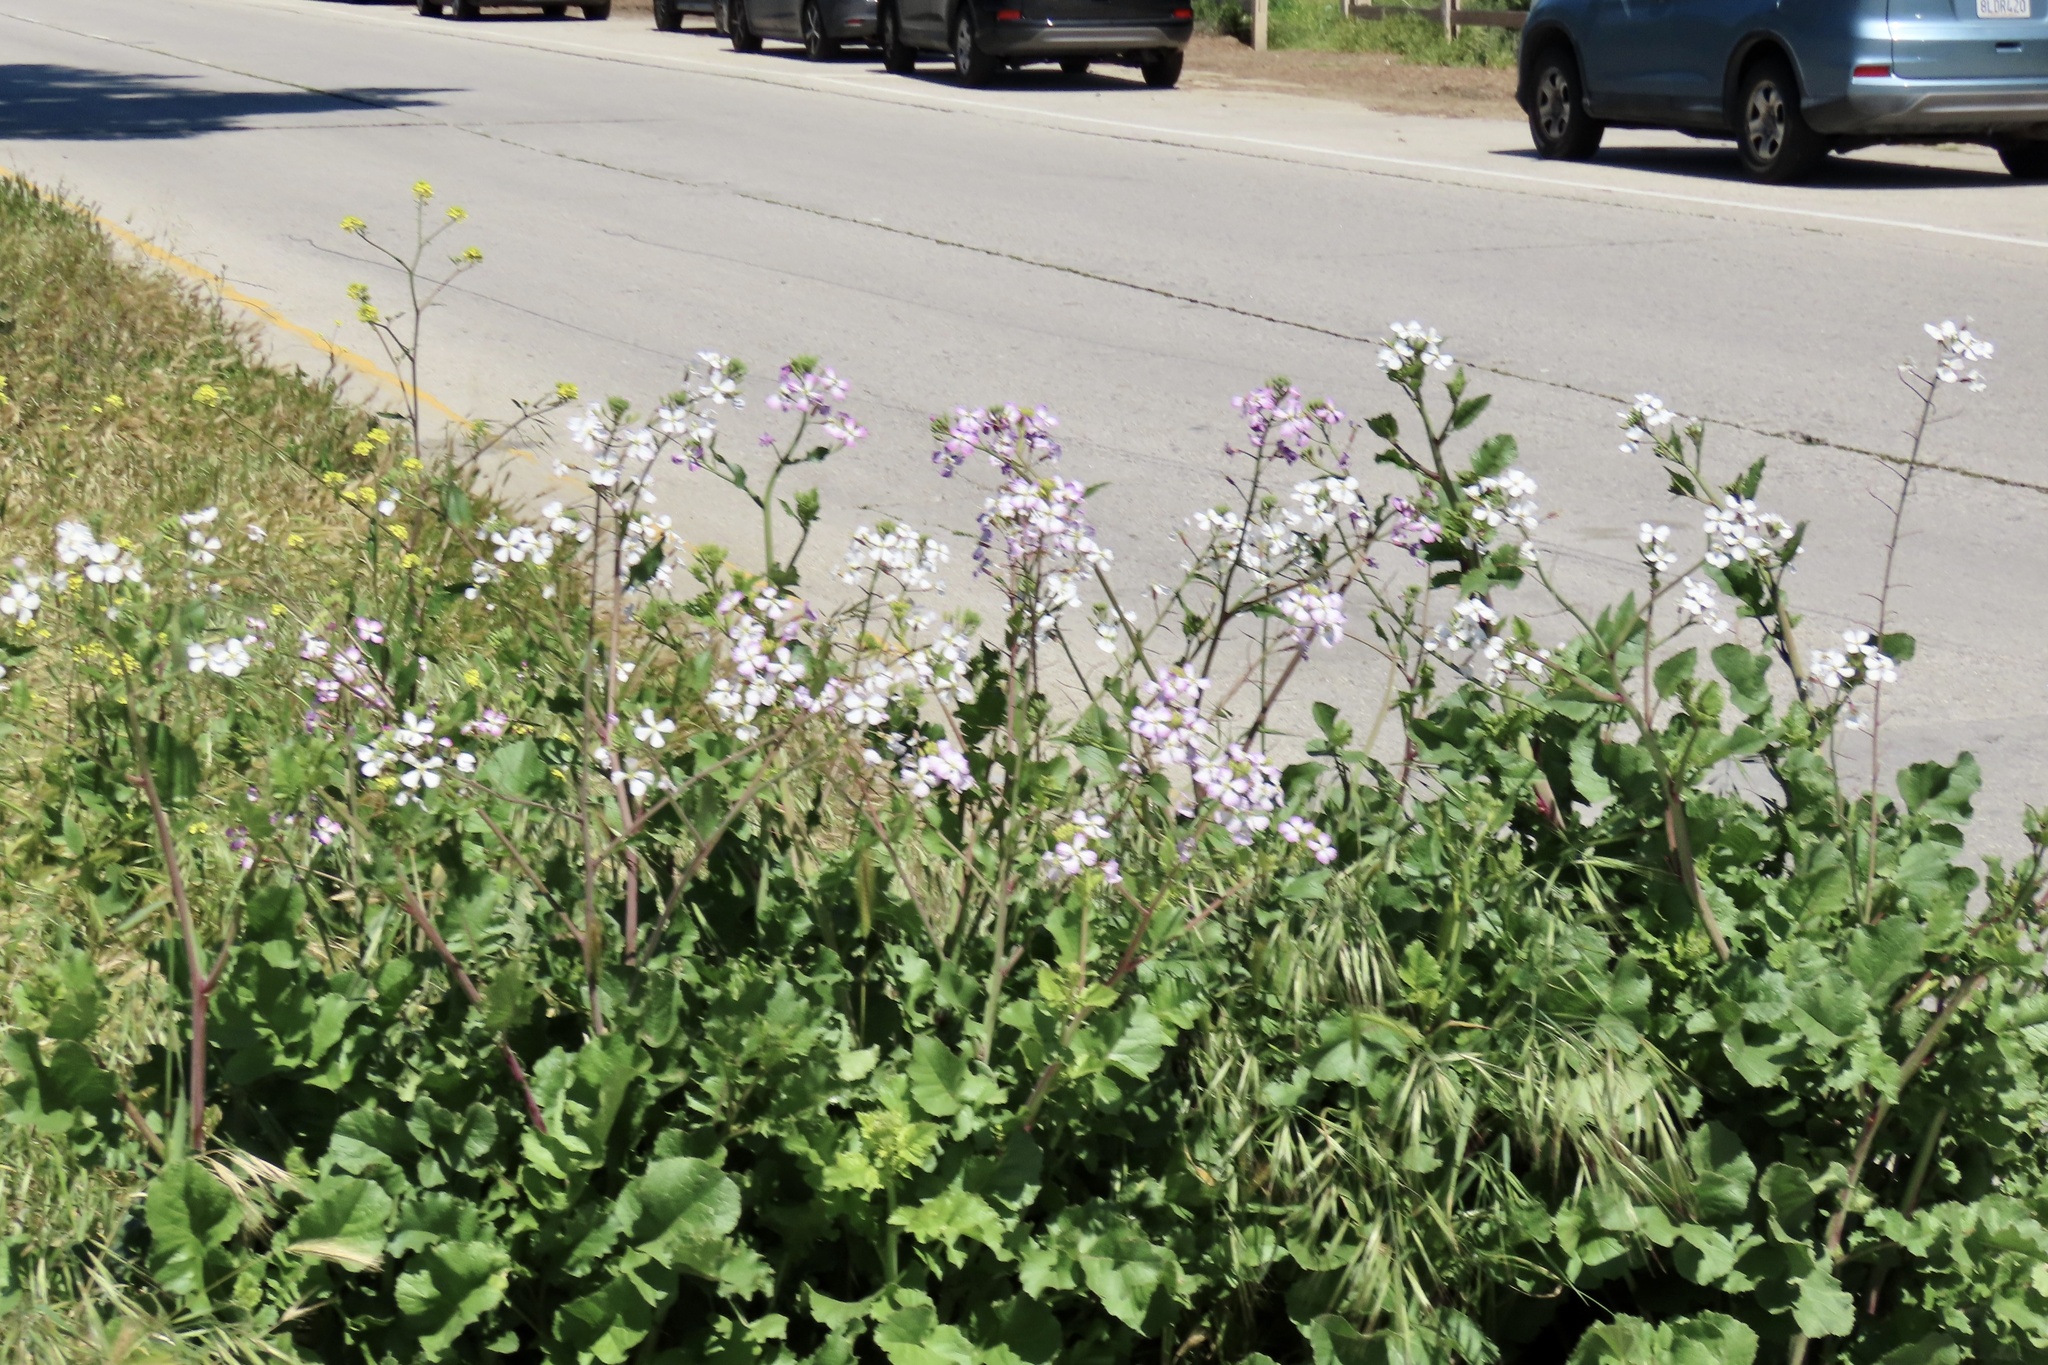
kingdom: Plantae
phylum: Tracheophyta
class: Magnoliopsida
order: Brassicales
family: Brassicaceae
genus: Raphanus
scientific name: Raphanus sativus
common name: Cultivated radish
